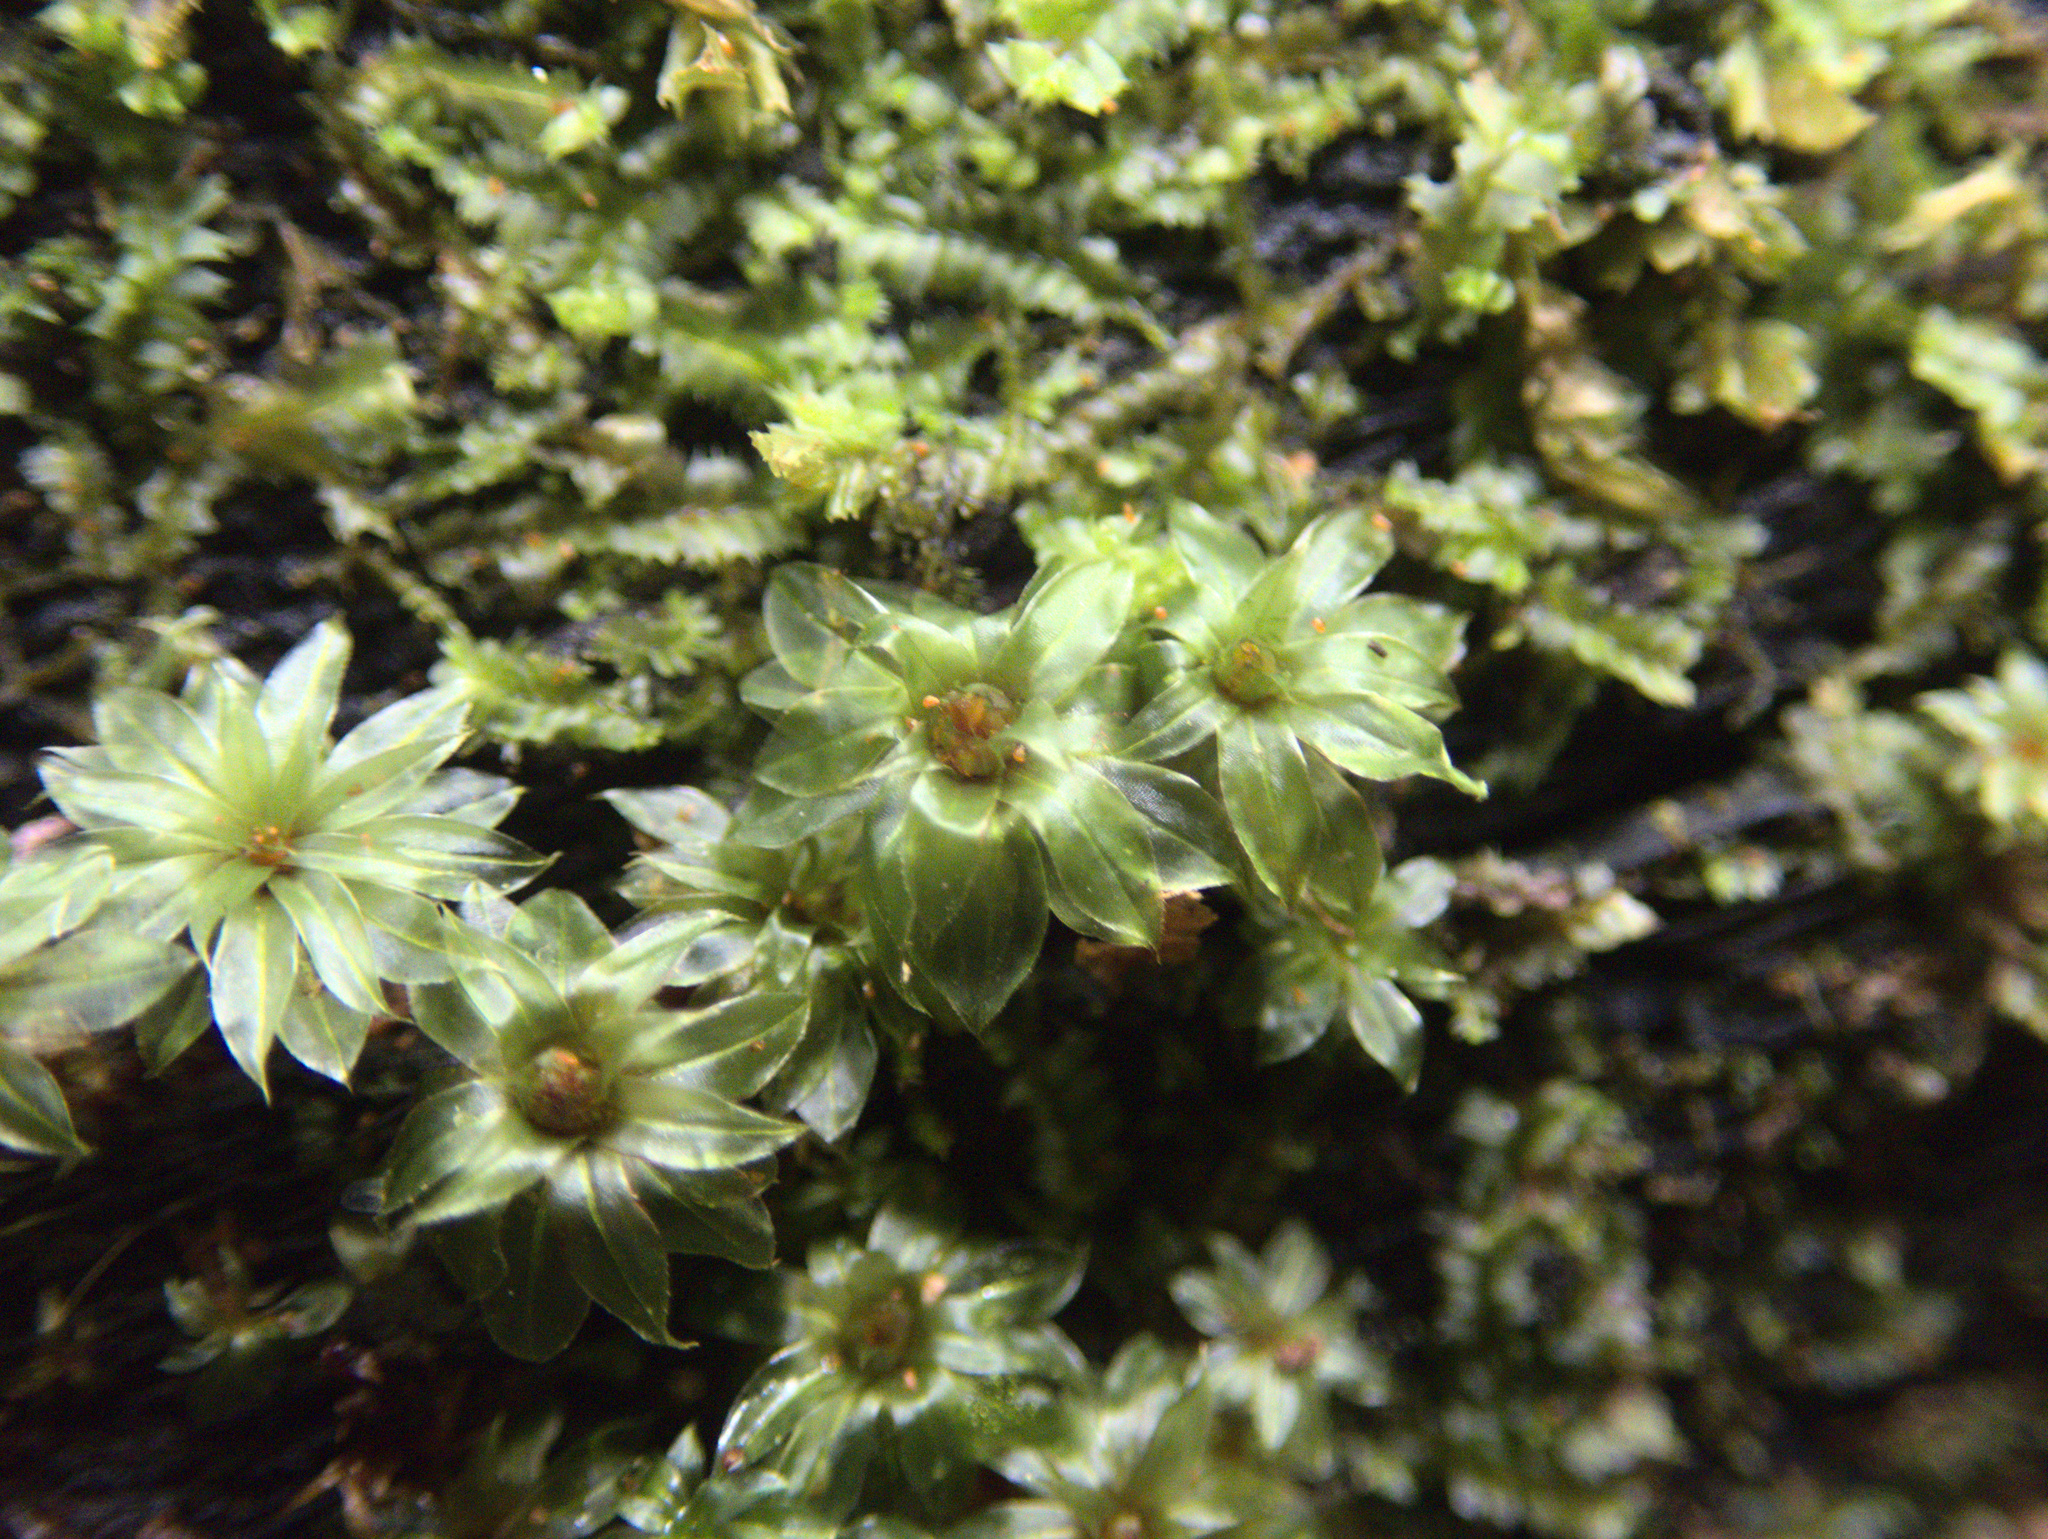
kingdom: Plantae
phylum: Bryophyta
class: Bryopsida
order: Bryales
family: Bryaceae
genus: Rosulabryum
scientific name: Rosulabryum subtomentosum
